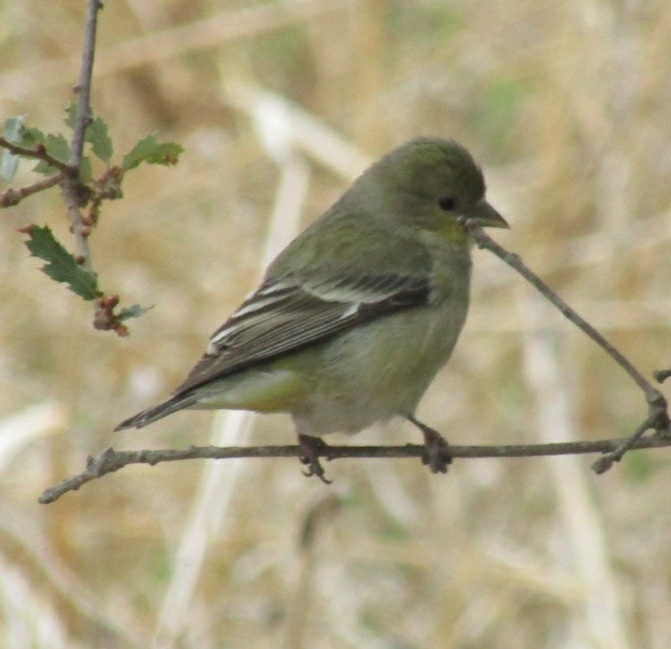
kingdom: Animalia
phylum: Chordata
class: Aves
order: Passeriformes
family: Fringillidae
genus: Spinus
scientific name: Spinus psaltria
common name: Lesser goldfinch
